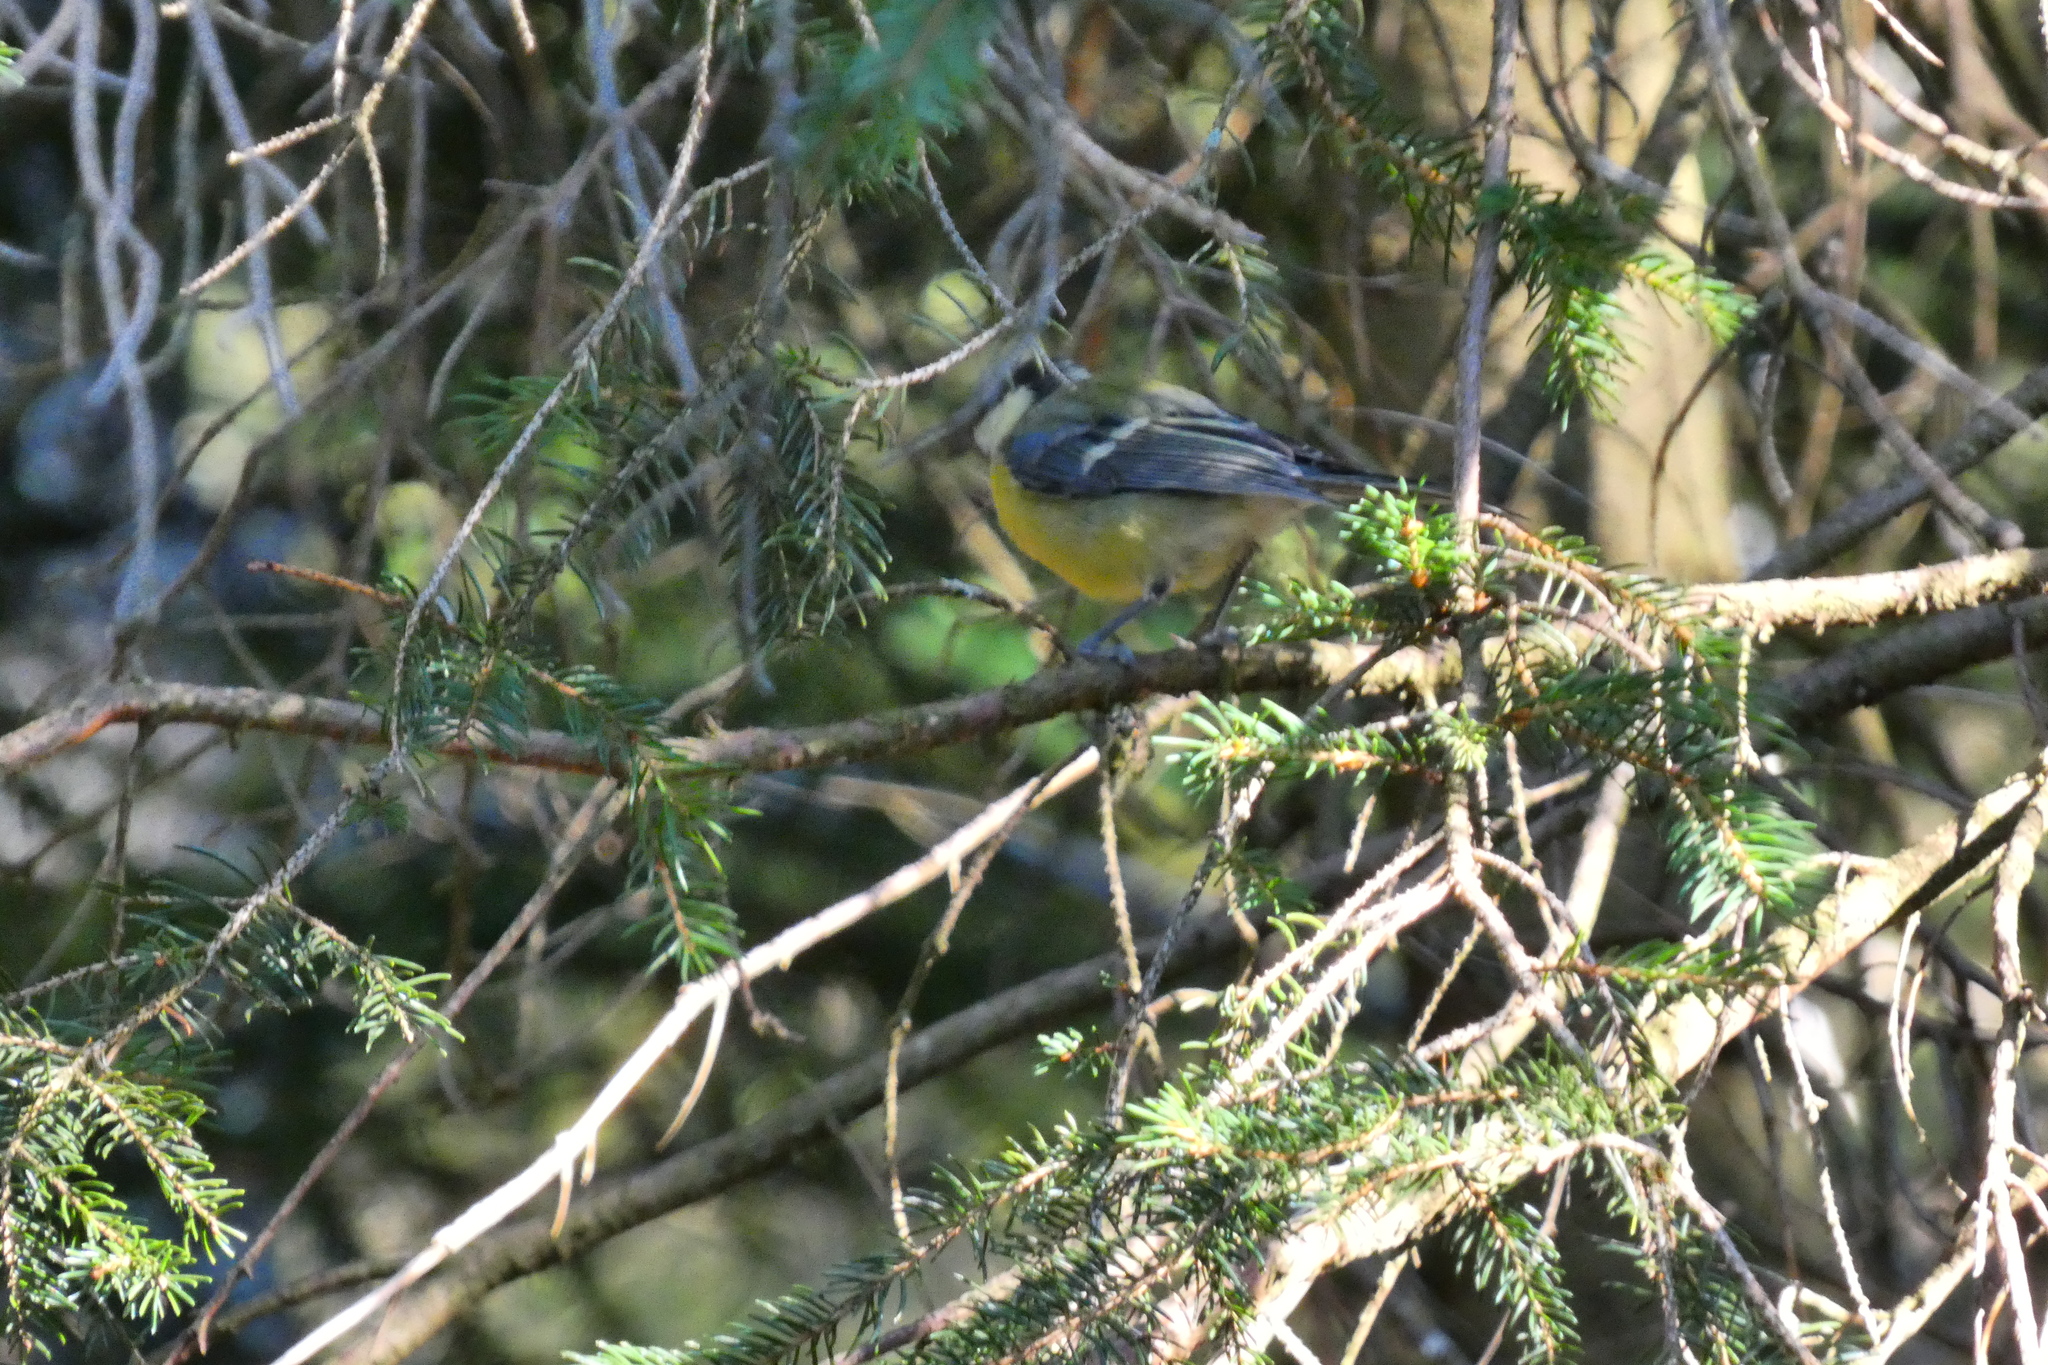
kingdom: Animalia
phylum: Chordata
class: Aves
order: Passeriformes
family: Paridae
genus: Cyanistes
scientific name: Cyanistes caeruleus
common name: Eurasian blue tit
